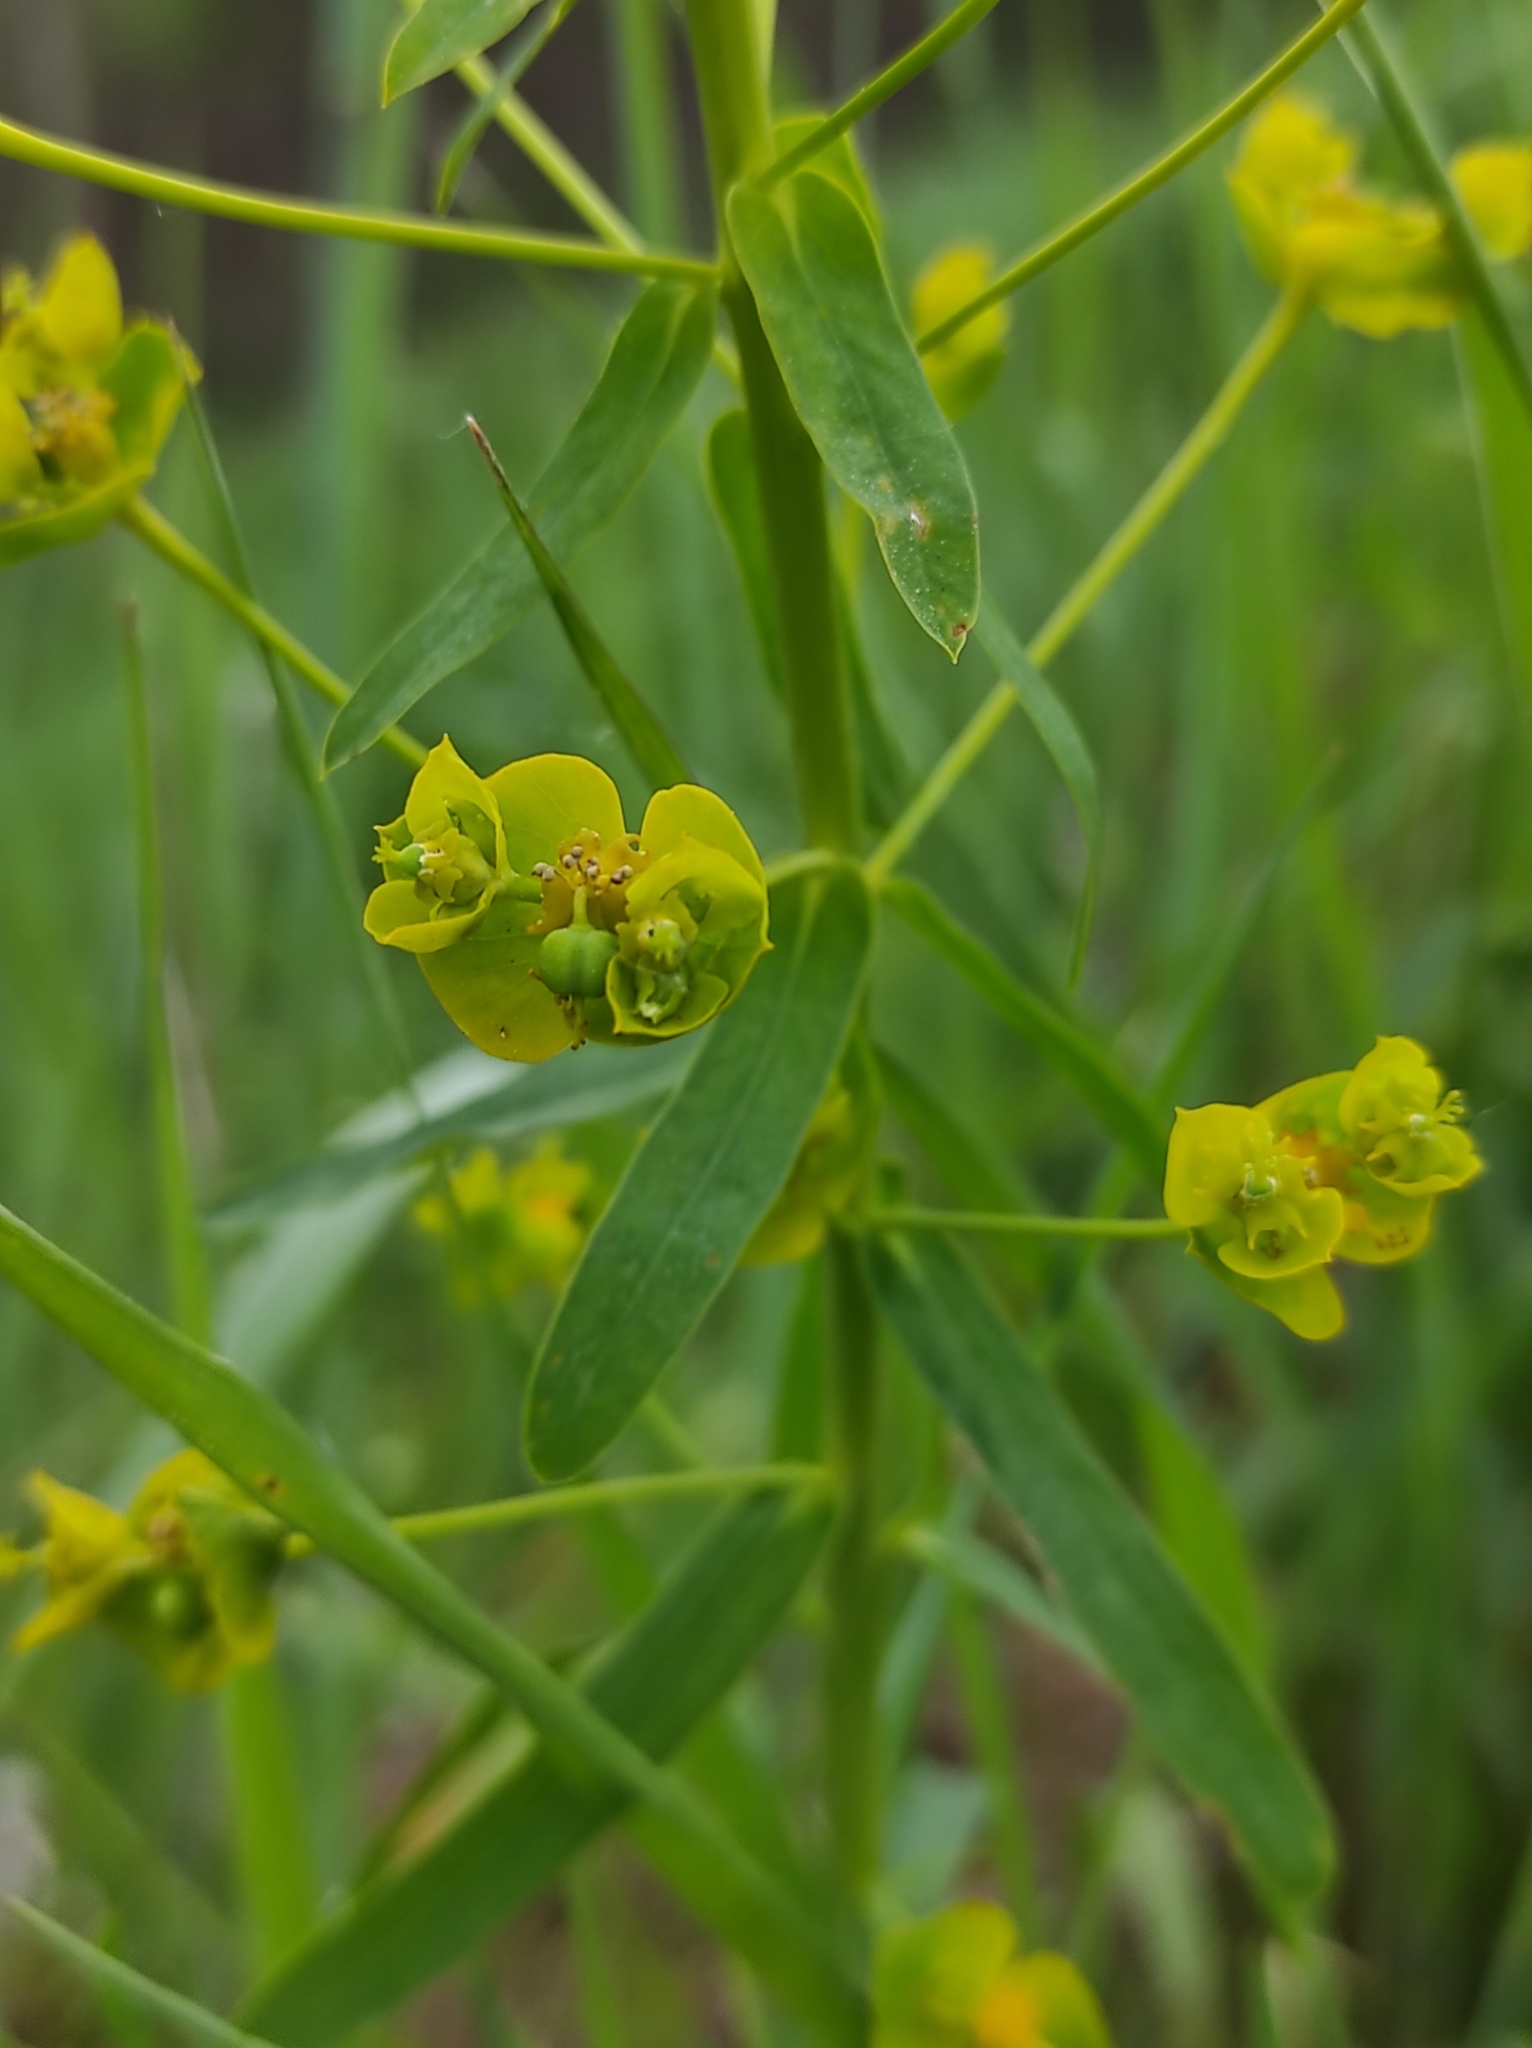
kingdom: Plantae
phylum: Tracheophyta
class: Magnoliopsida
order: Malpighiales
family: Euphorbiaceae
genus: Euphorbia
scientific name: Euphorbia virgata
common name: Leafy spurge
